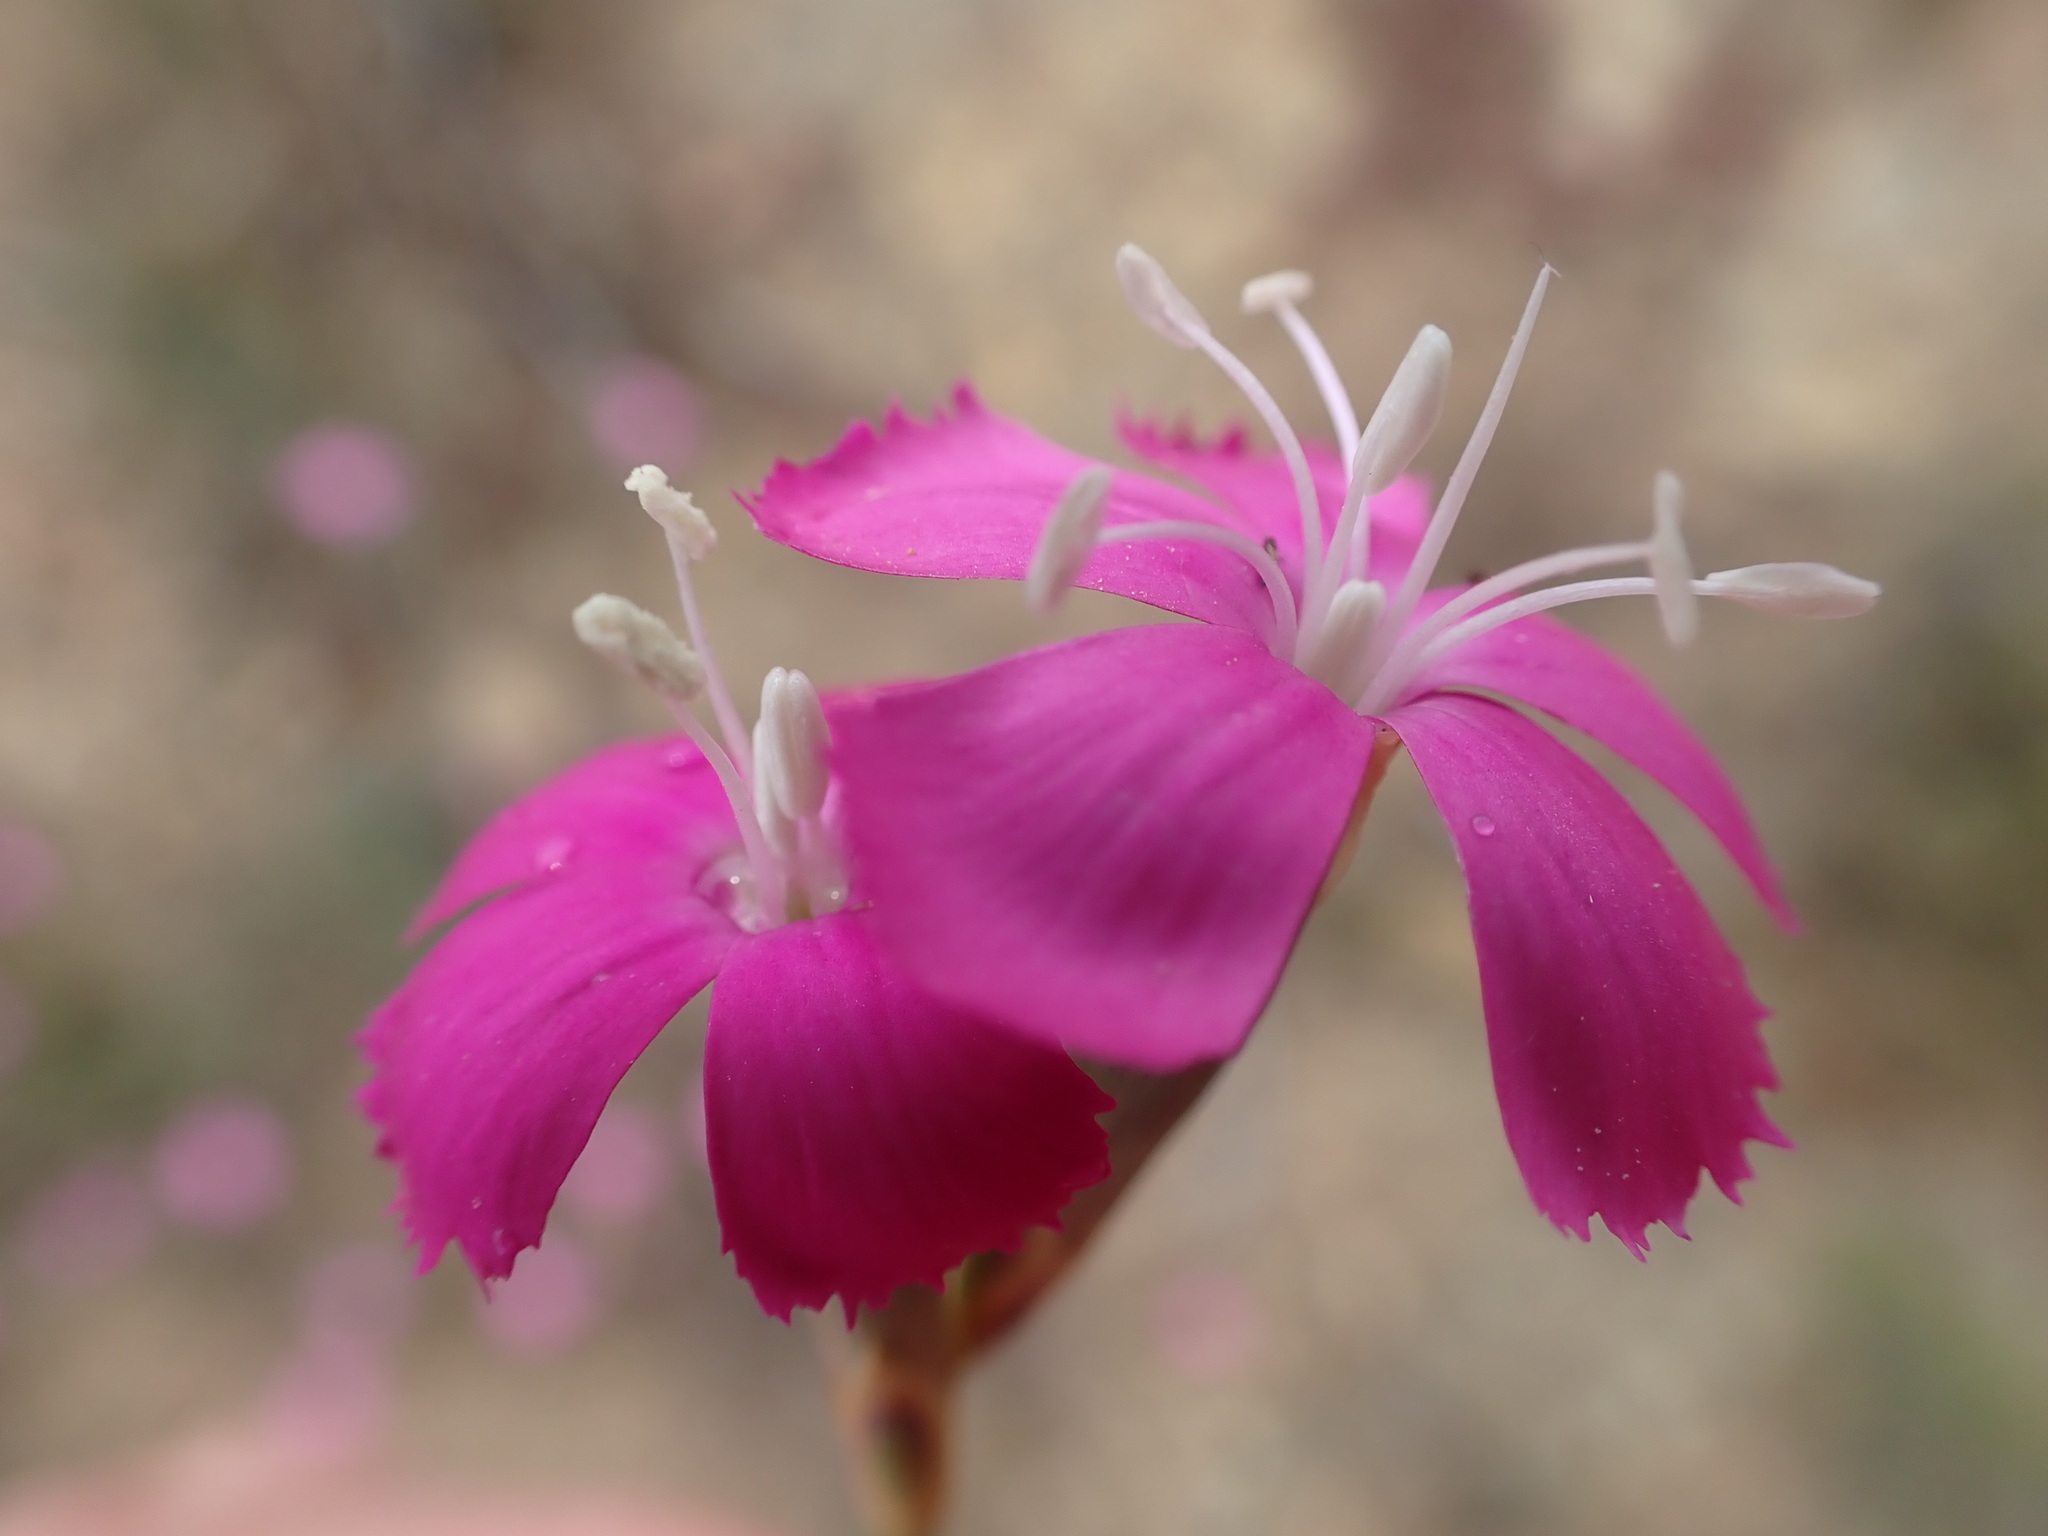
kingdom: Plantae
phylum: Tracheophyta
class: Magnoliopsida
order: Caryophyllales
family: Caryophyllaceae
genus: Dianthus
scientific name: Dianthus basuticus
